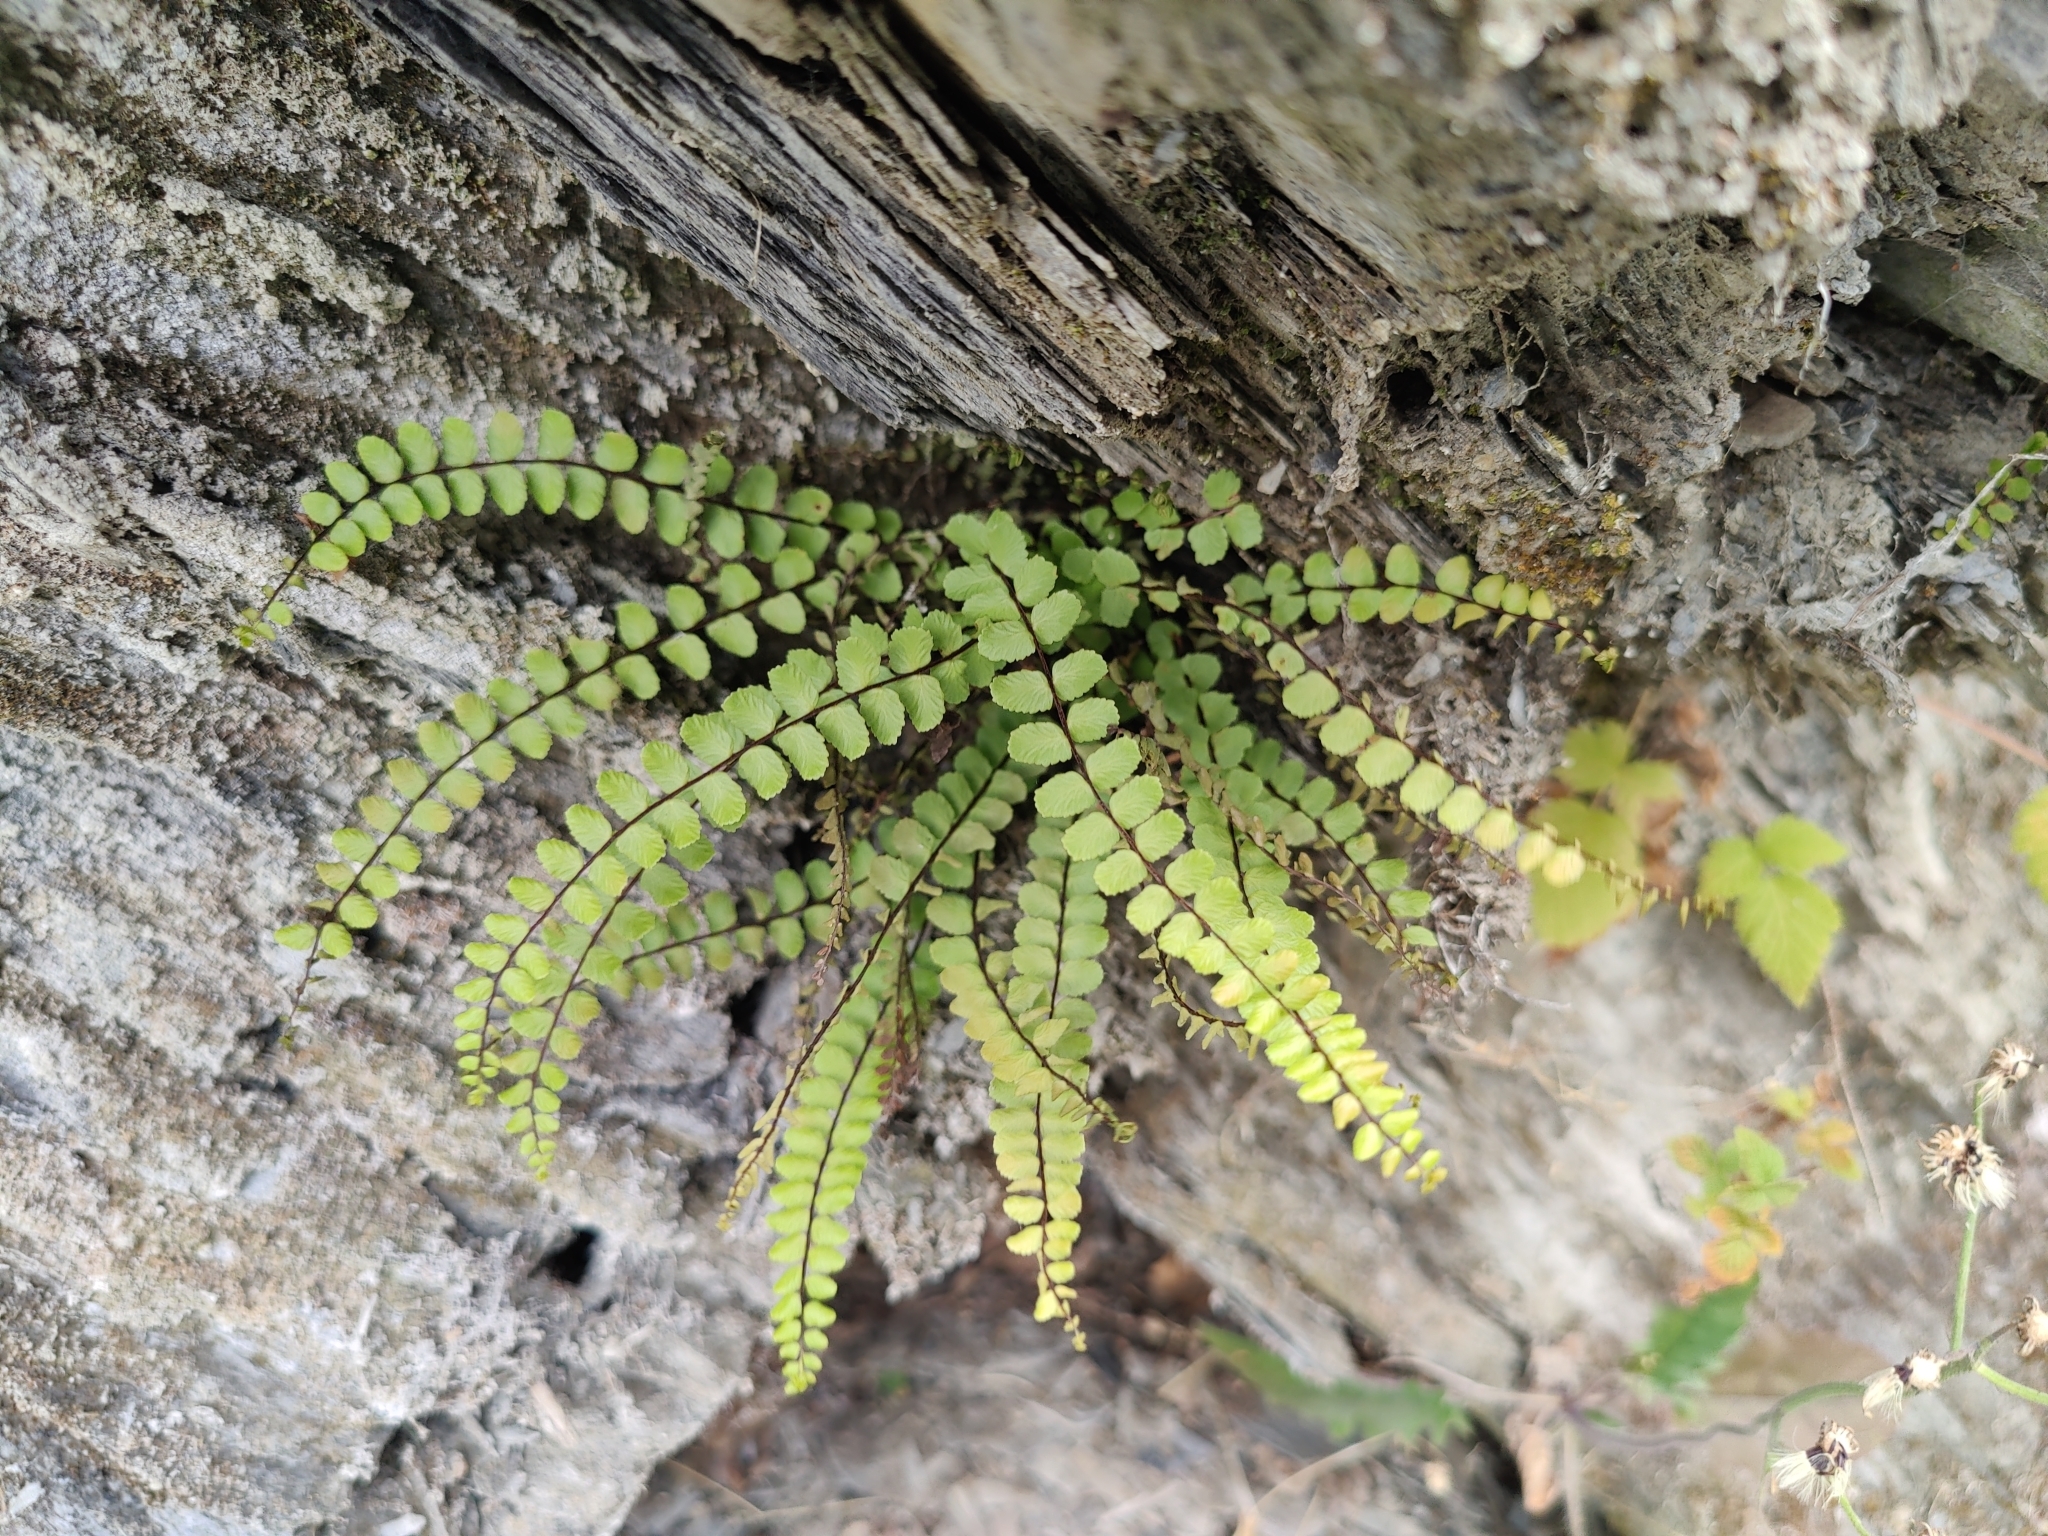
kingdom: Plantae
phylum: Tracheophyta
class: Polypodiopsida
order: Polypodiales
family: Aspleniaceae
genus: Asplenium
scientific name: Asplenium trichomanes
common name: Maidenhair spleenwort
